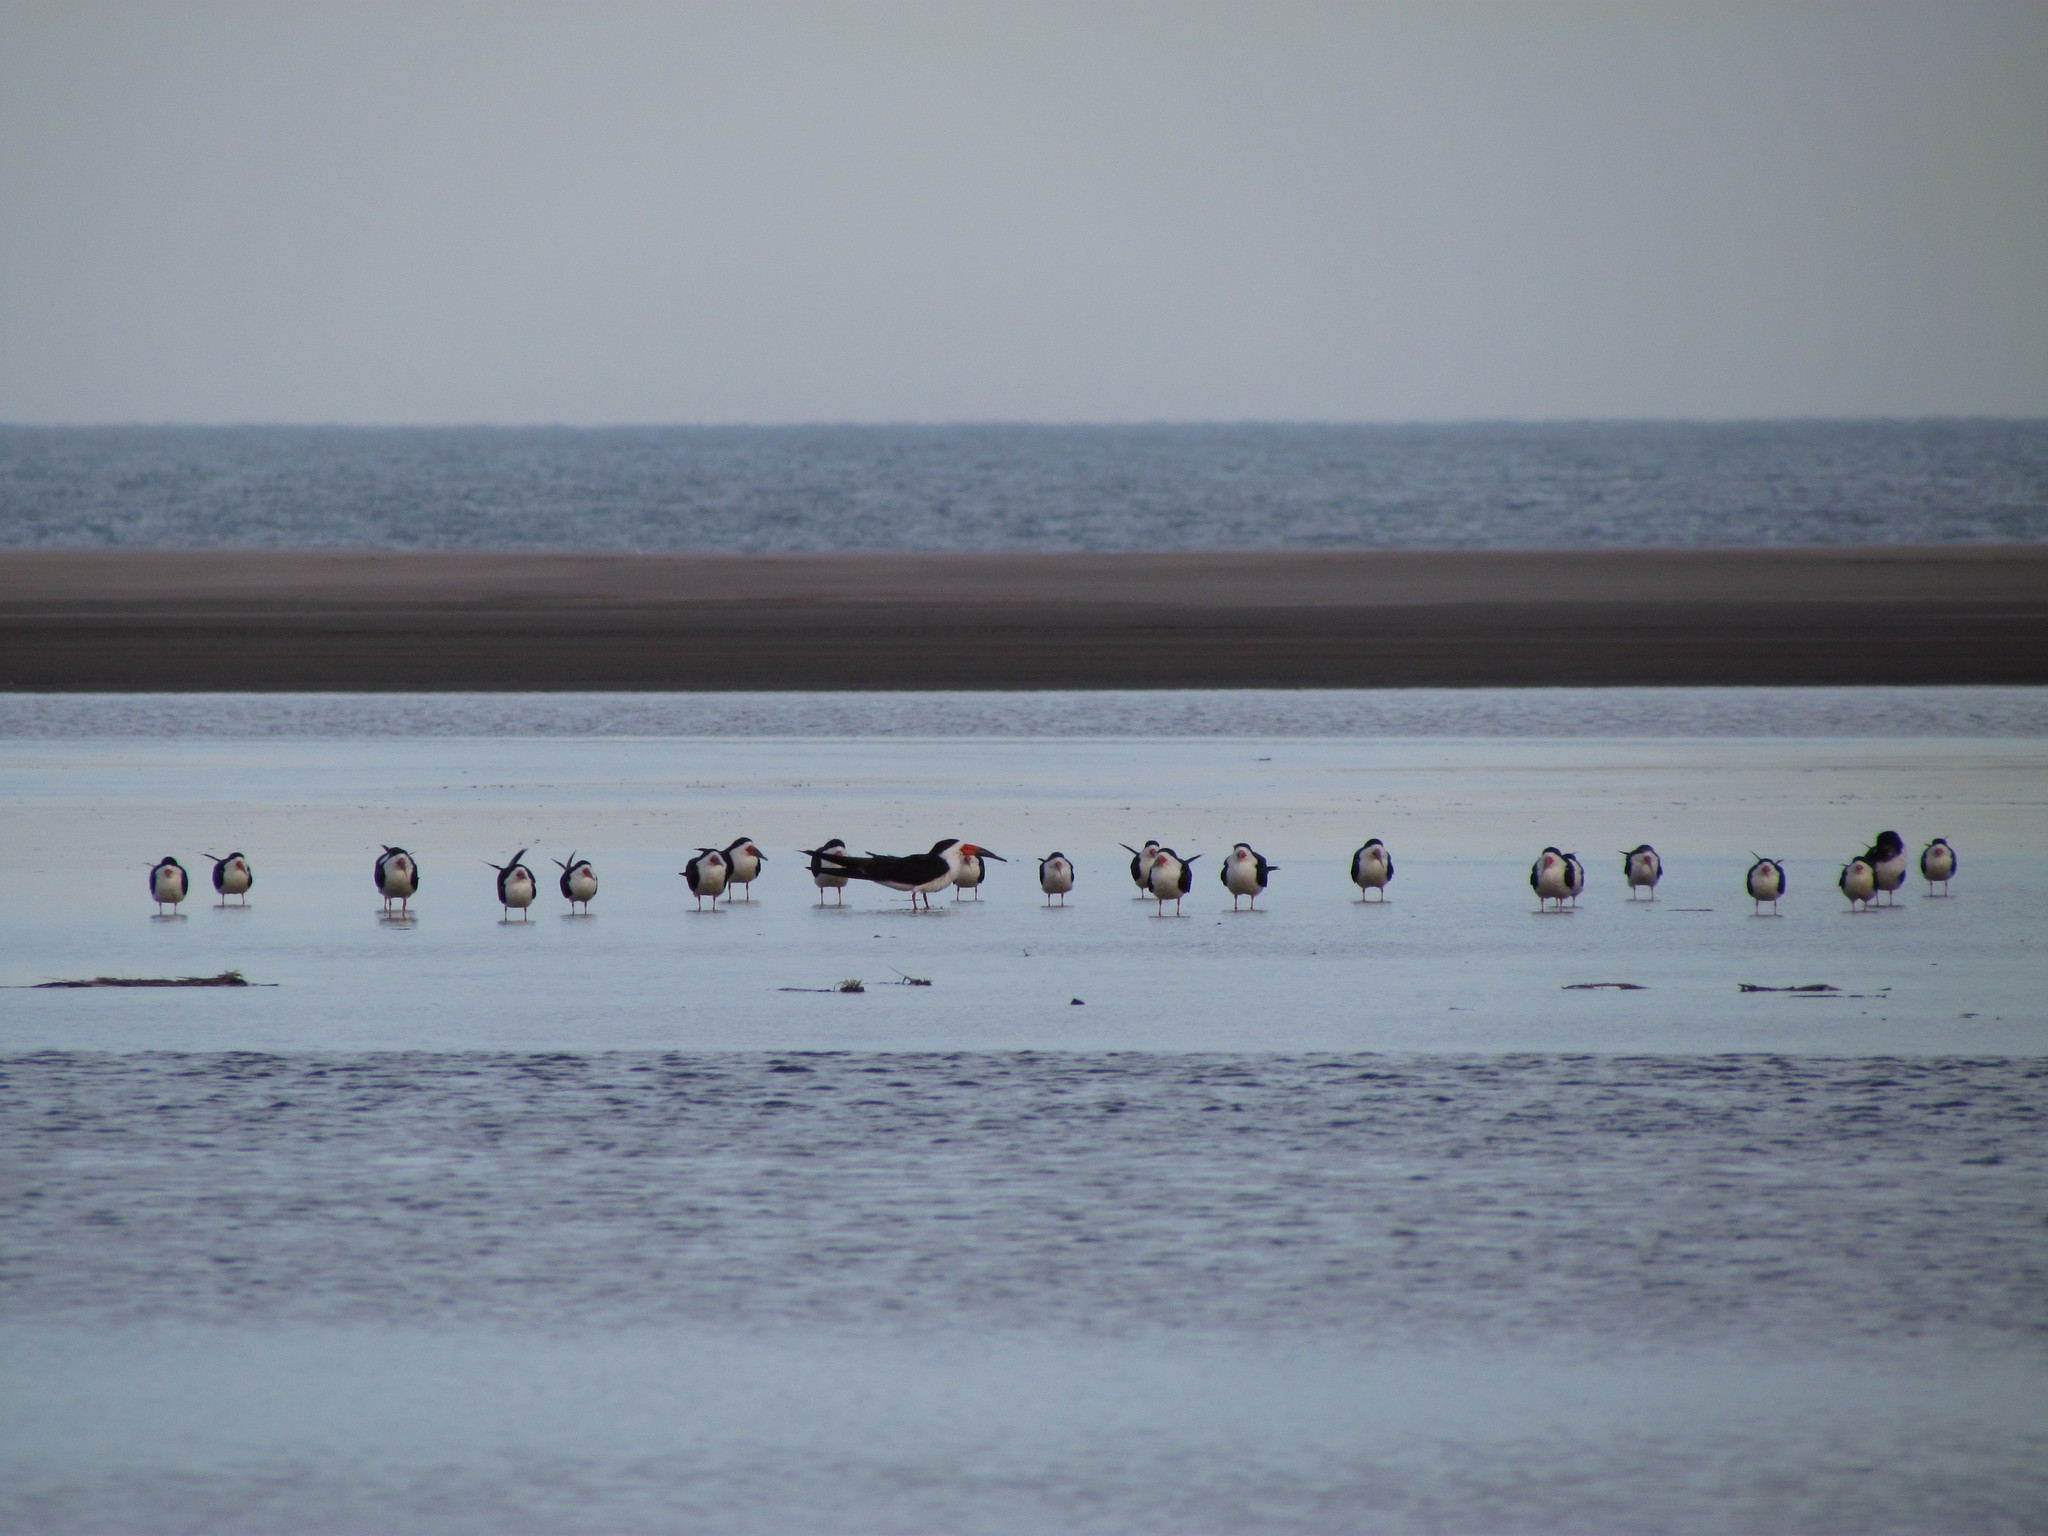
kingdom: Animalia
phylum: Chordata
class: Aves
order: Charadriiformes
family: Laridae
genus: Rynchops
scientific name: Rynchops niger
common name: Black skimmer
